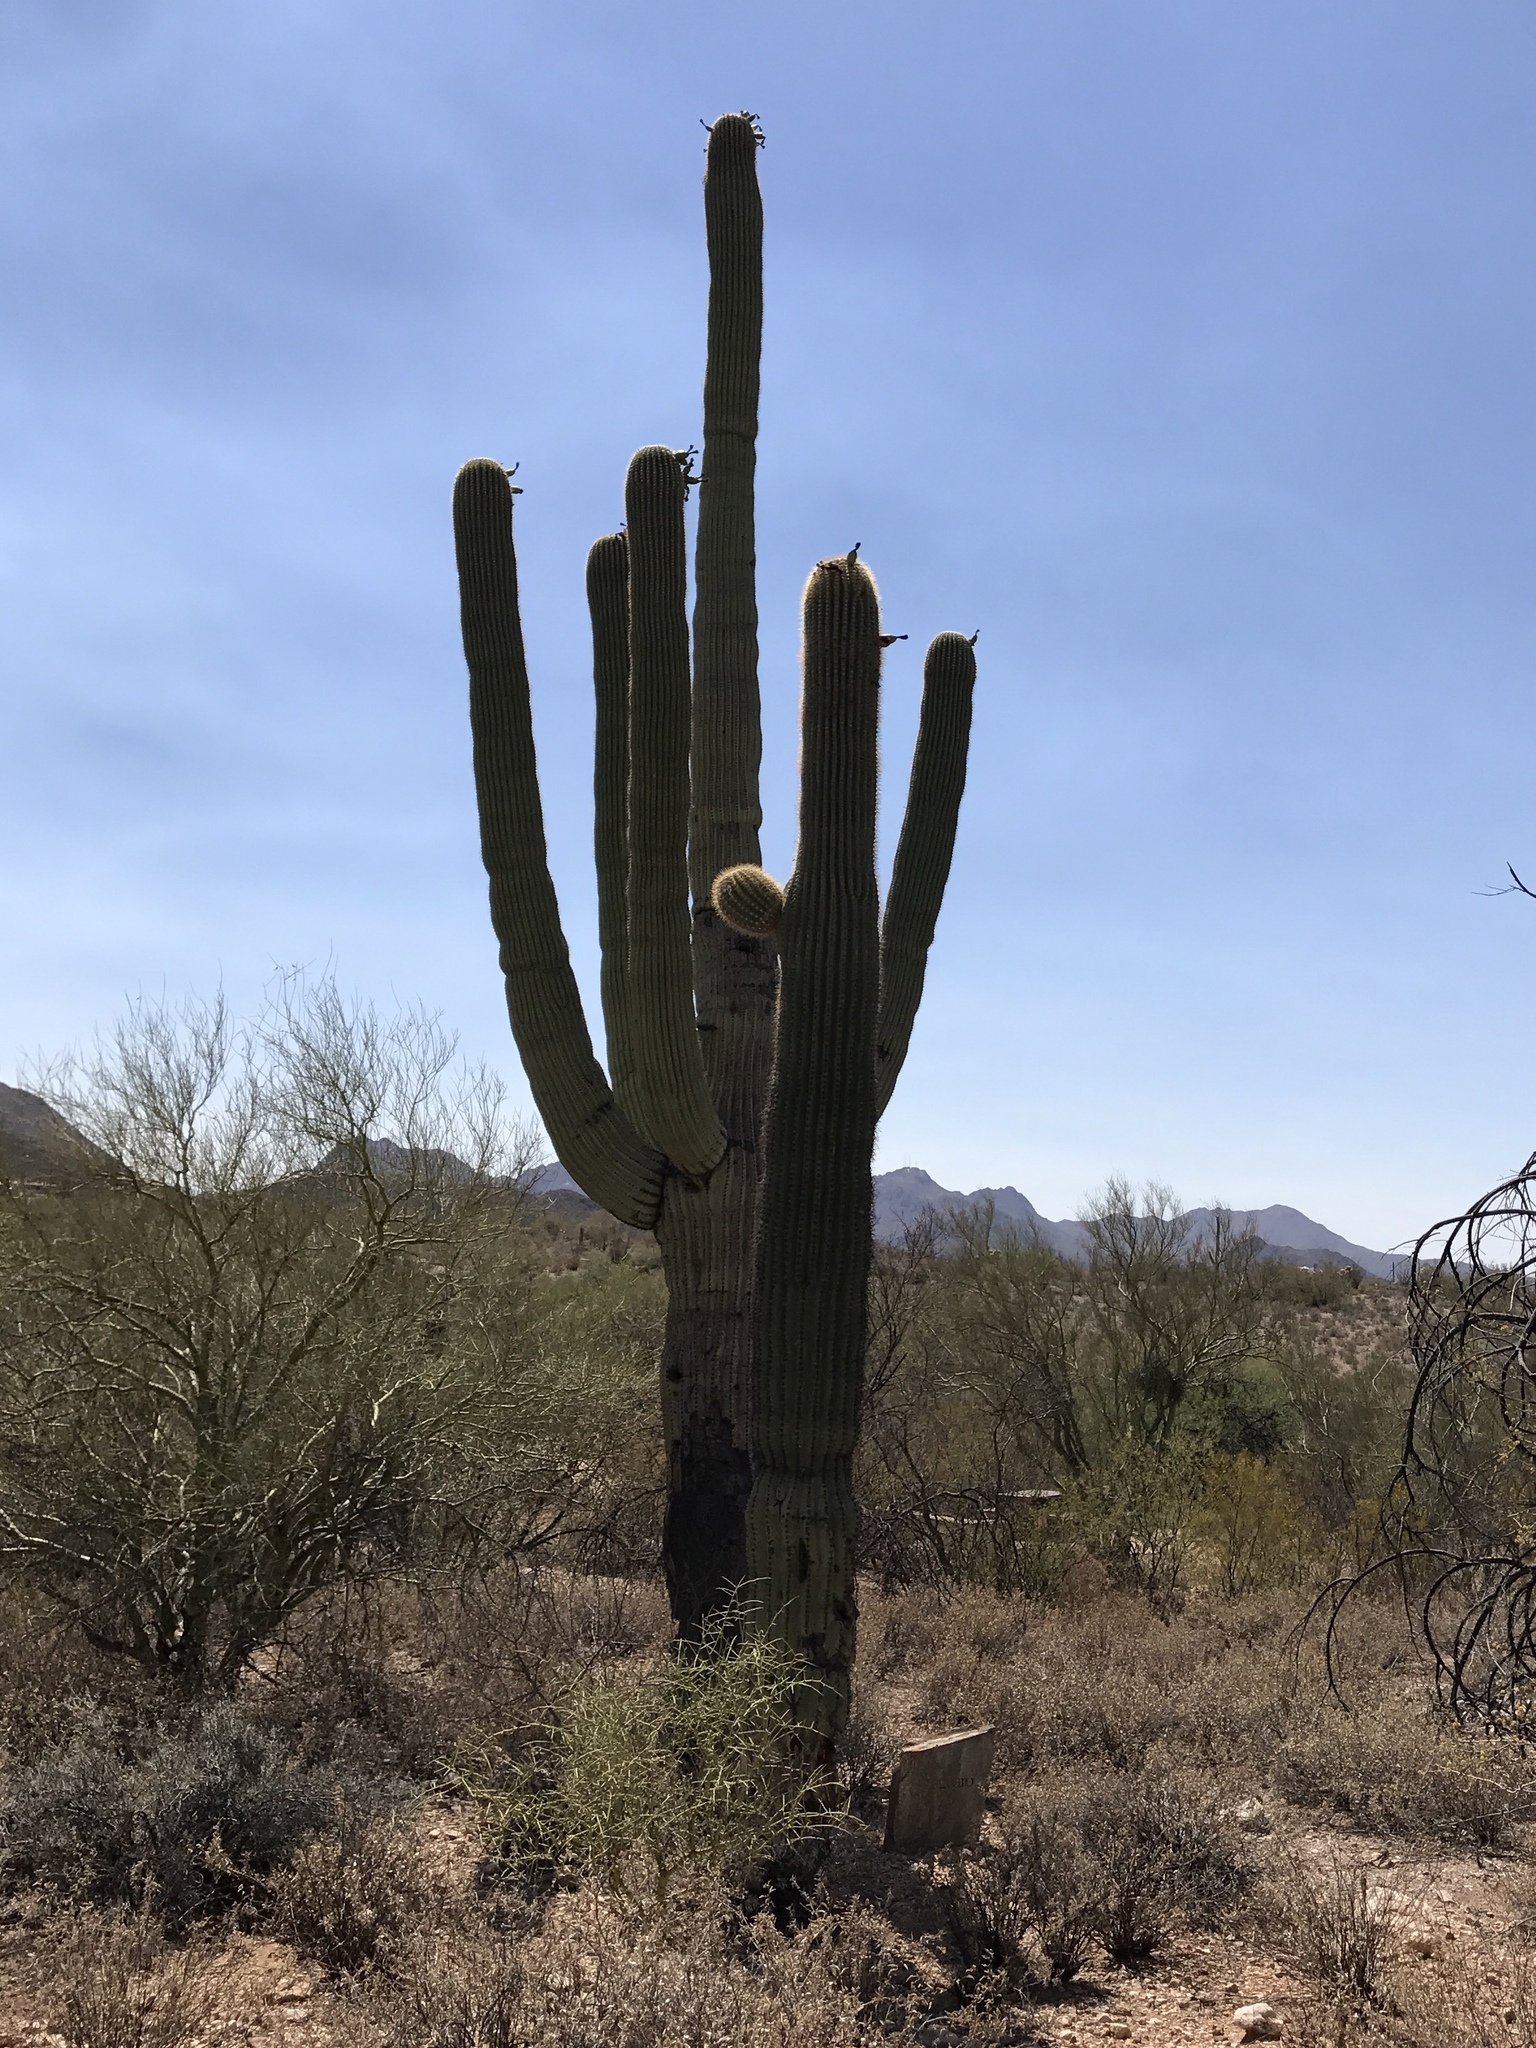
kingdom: Plantae
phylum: Tracheophyta
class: Magnoliopsida
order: Caryophyllales
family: Cactaceae
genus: Carnegiea
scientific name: Carnegiea gigantea
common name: Saguaro
